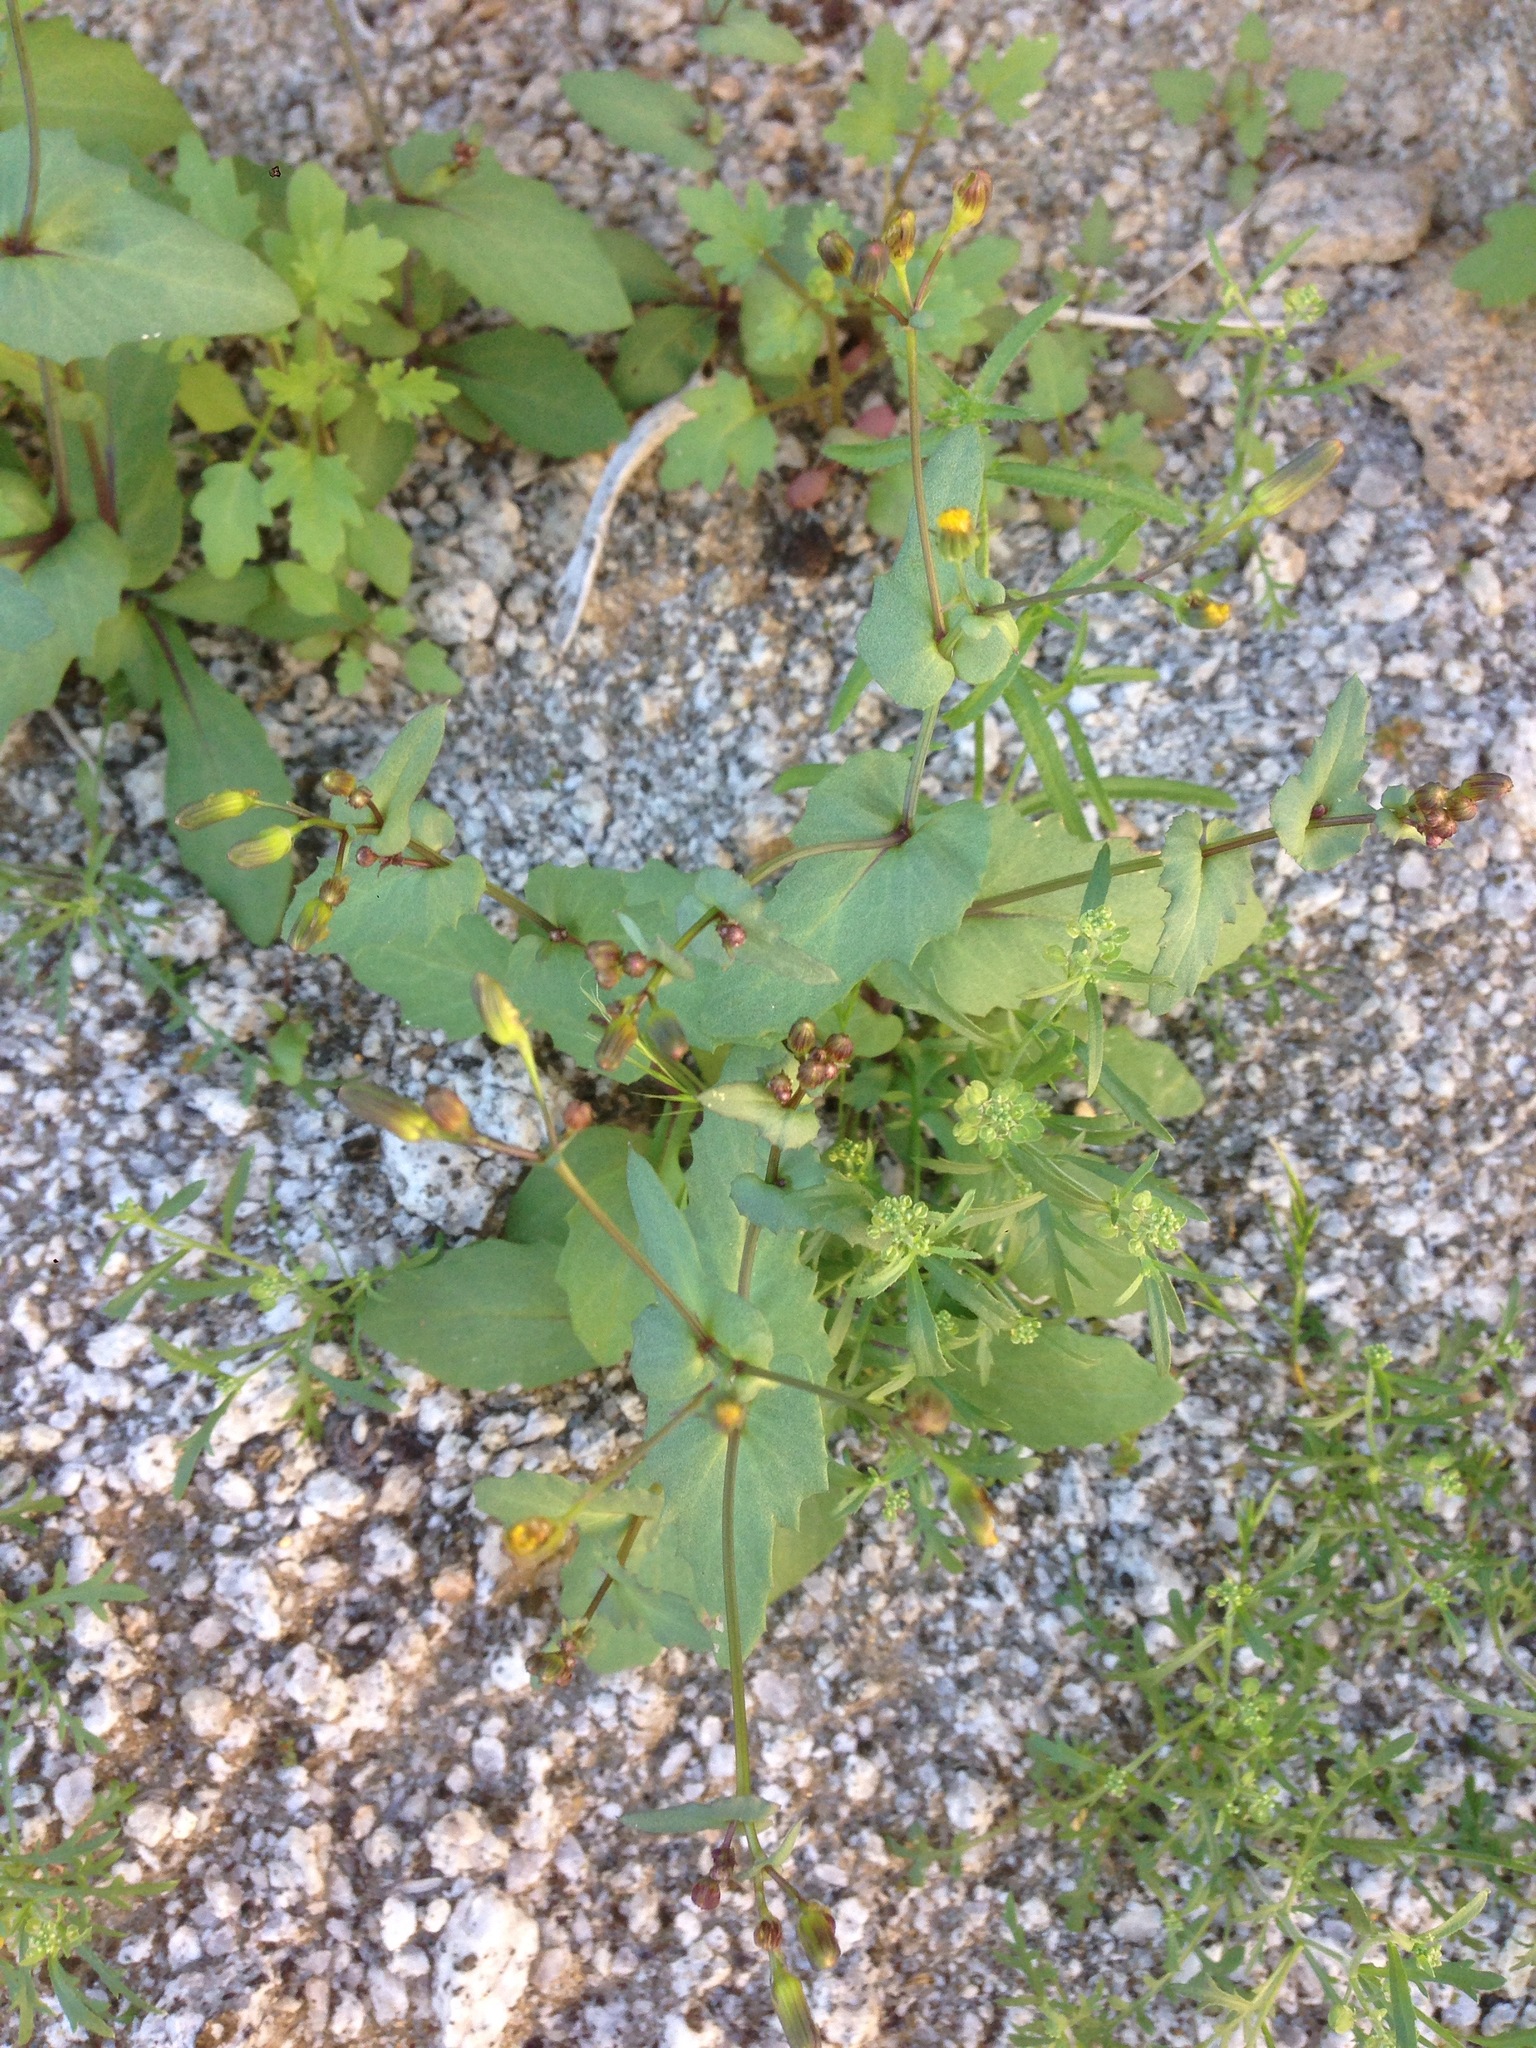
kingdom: Plantae
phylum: Tracheophyta
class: Magnoliopsida
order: Asterales
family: Asteraceae
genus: Senecio
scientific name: Senecio mohavensis
